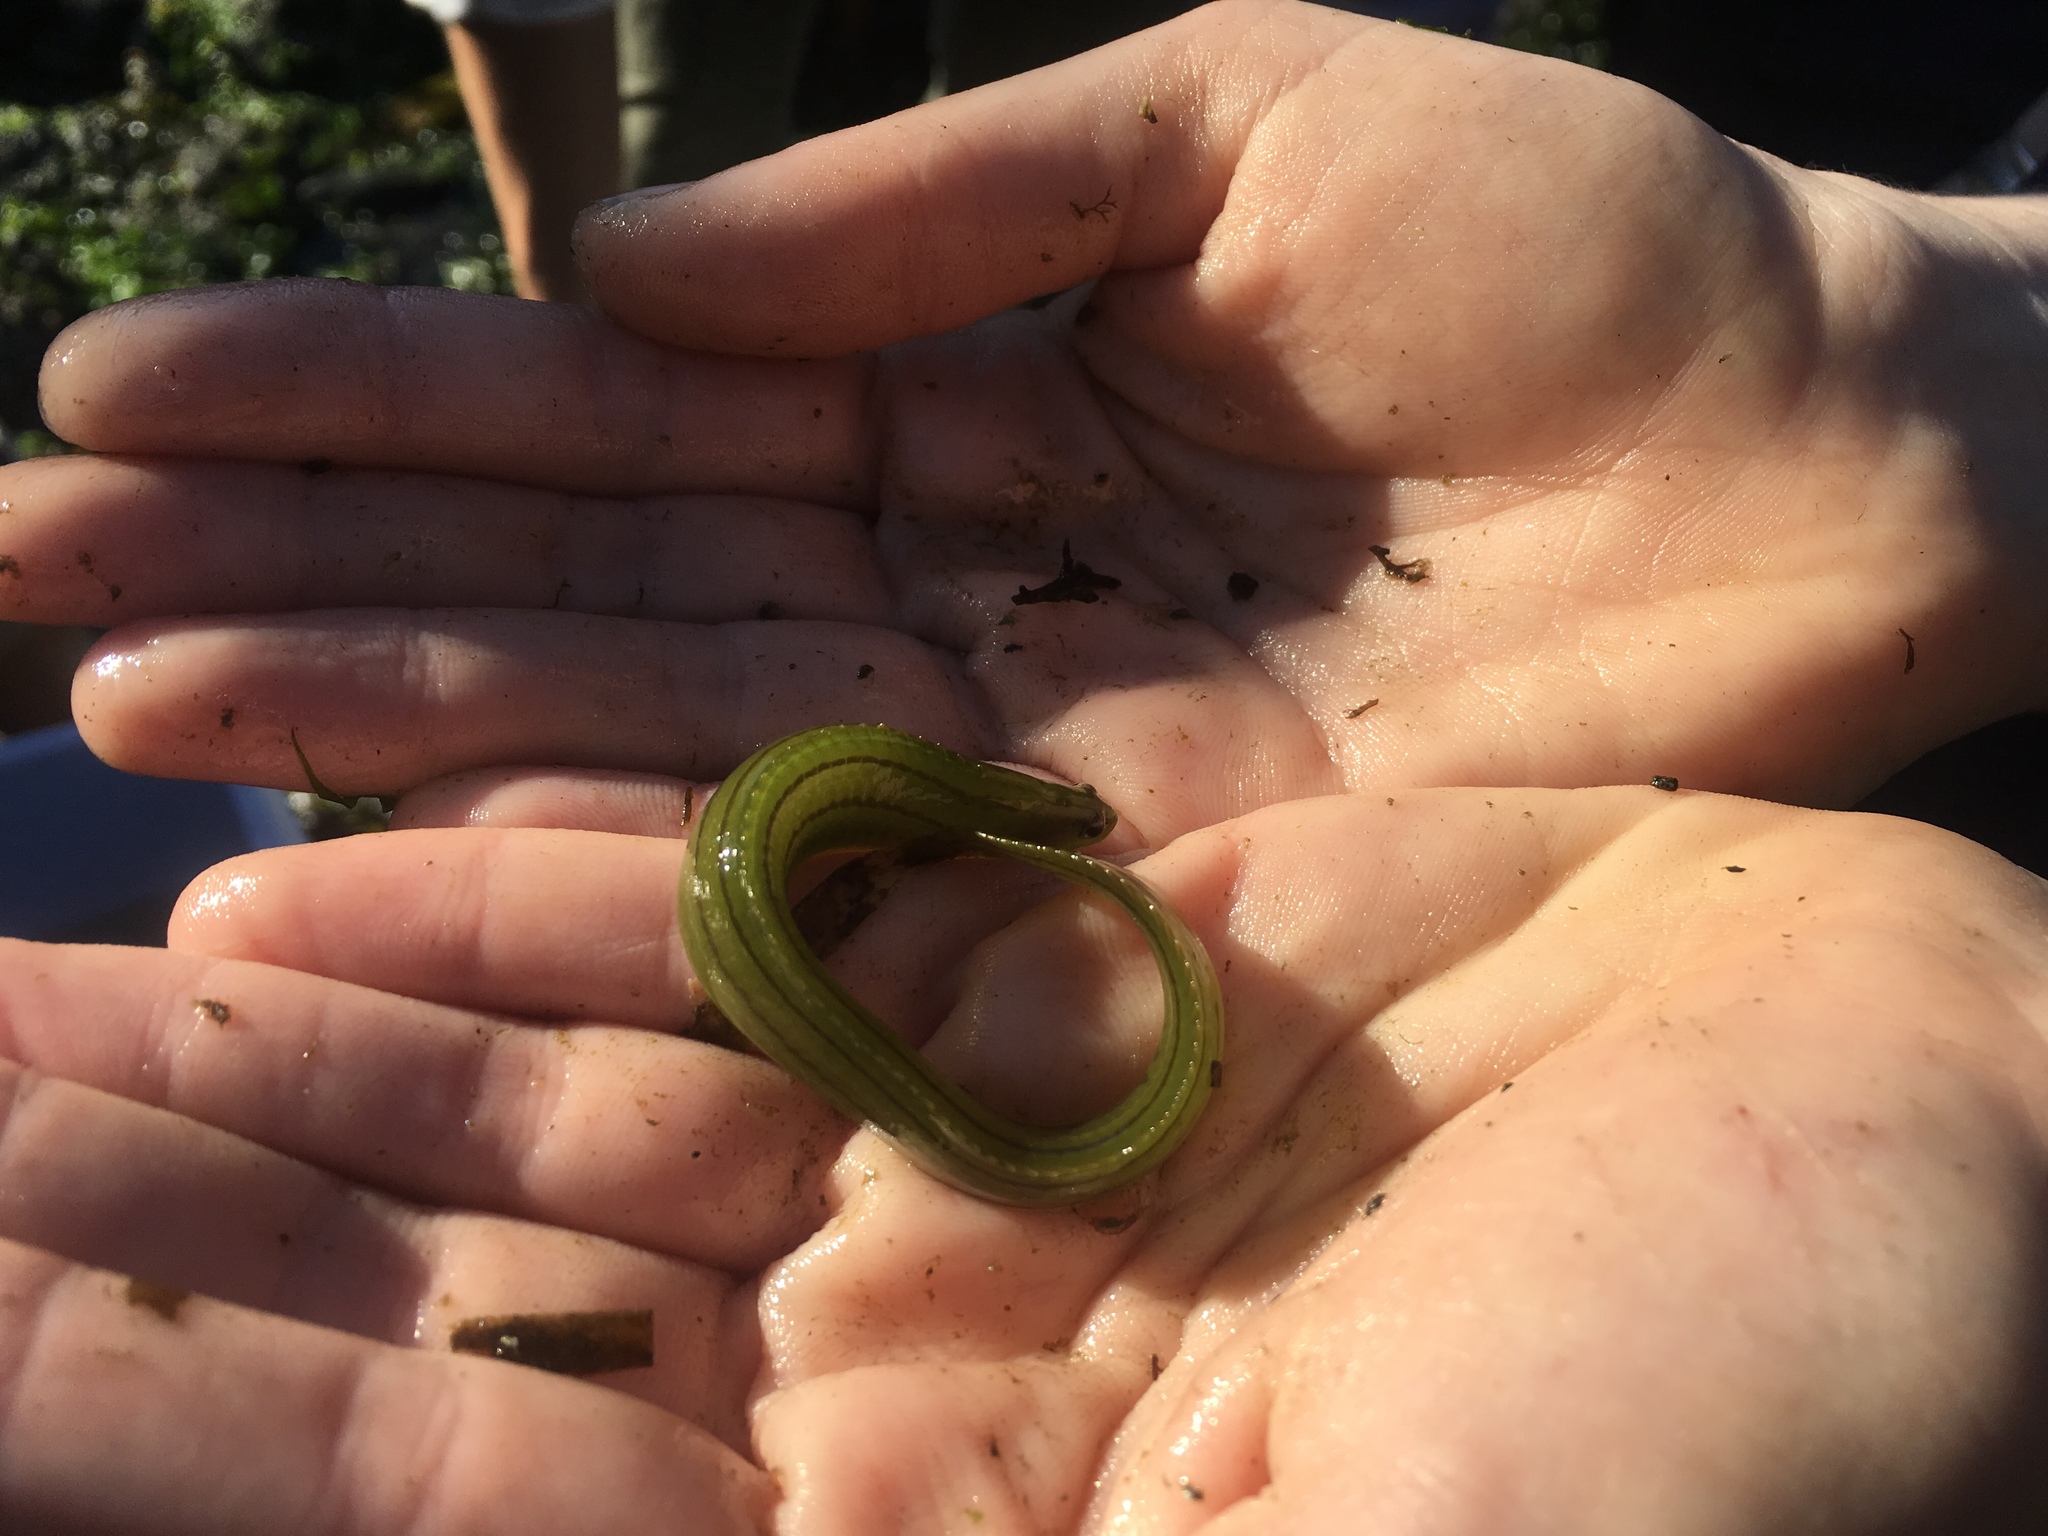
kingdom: Animalia
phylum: Chordata
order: Perciformes
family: Stichaeidae
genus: Phytichthys
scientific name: Phytichthys chirus
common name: Ribbon prickleback
